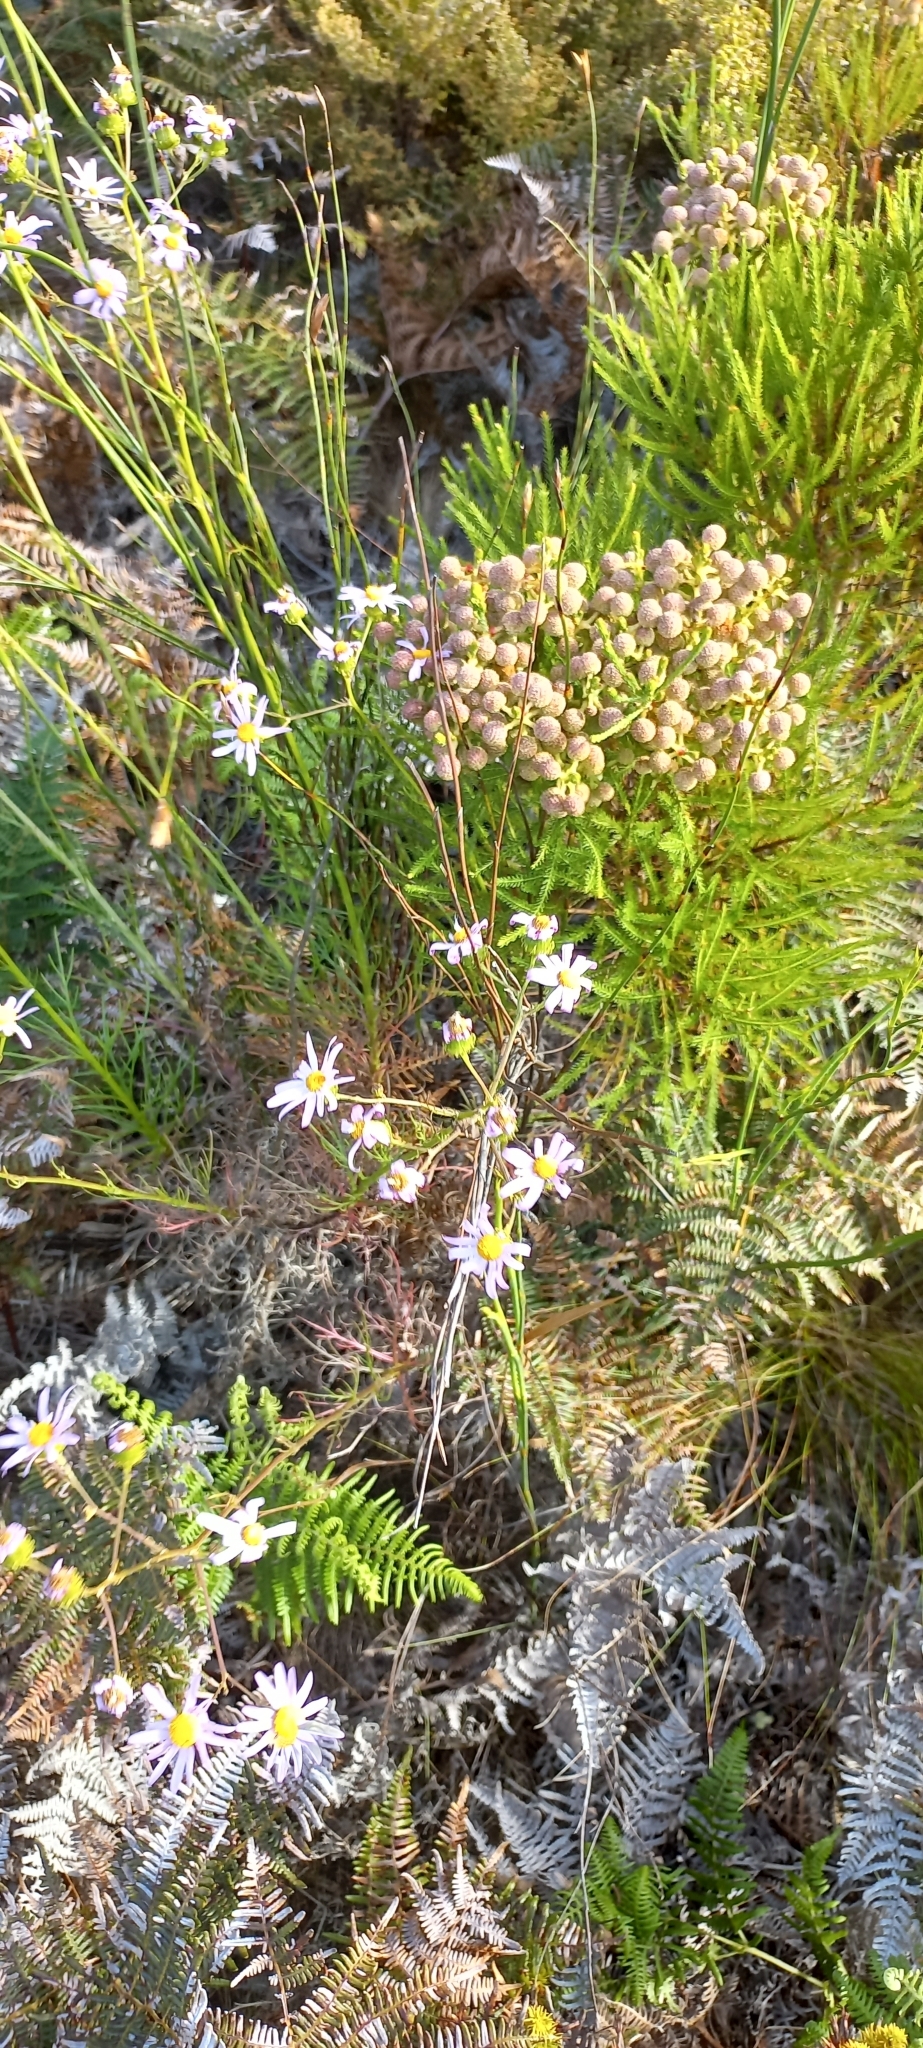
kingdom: Plantae
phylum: Tracheophyta
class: Magnoliopsida
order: Bruniales
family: Bruniaceae
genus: Berzelia
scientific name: Berzelia lanuginosa
